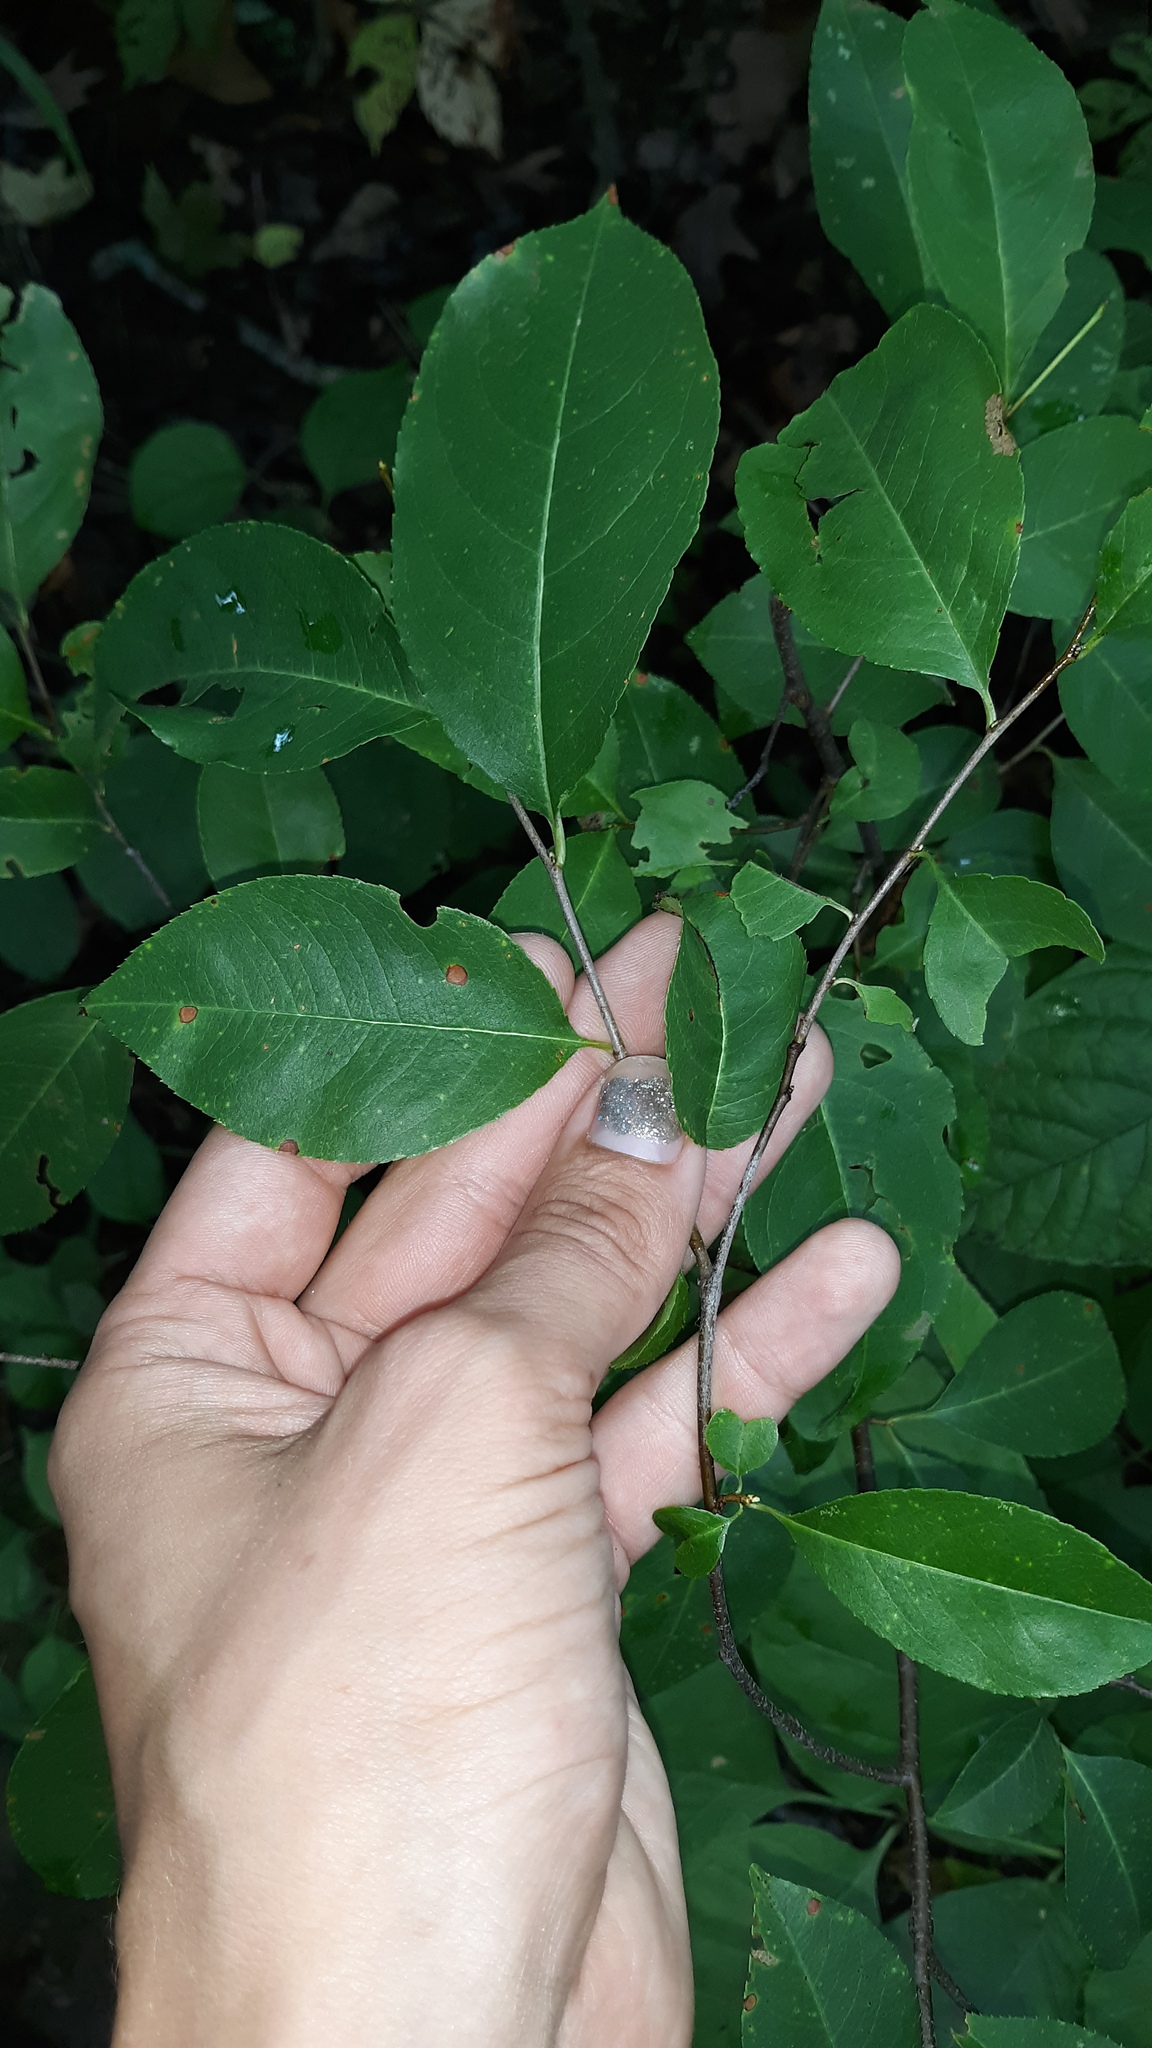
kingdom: Plantae
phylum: Tracheophyta
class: Magnoliopsida
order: Rosales
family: Rosaceae
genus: Prunus
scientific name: Prunus serotina
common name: Black cherry
